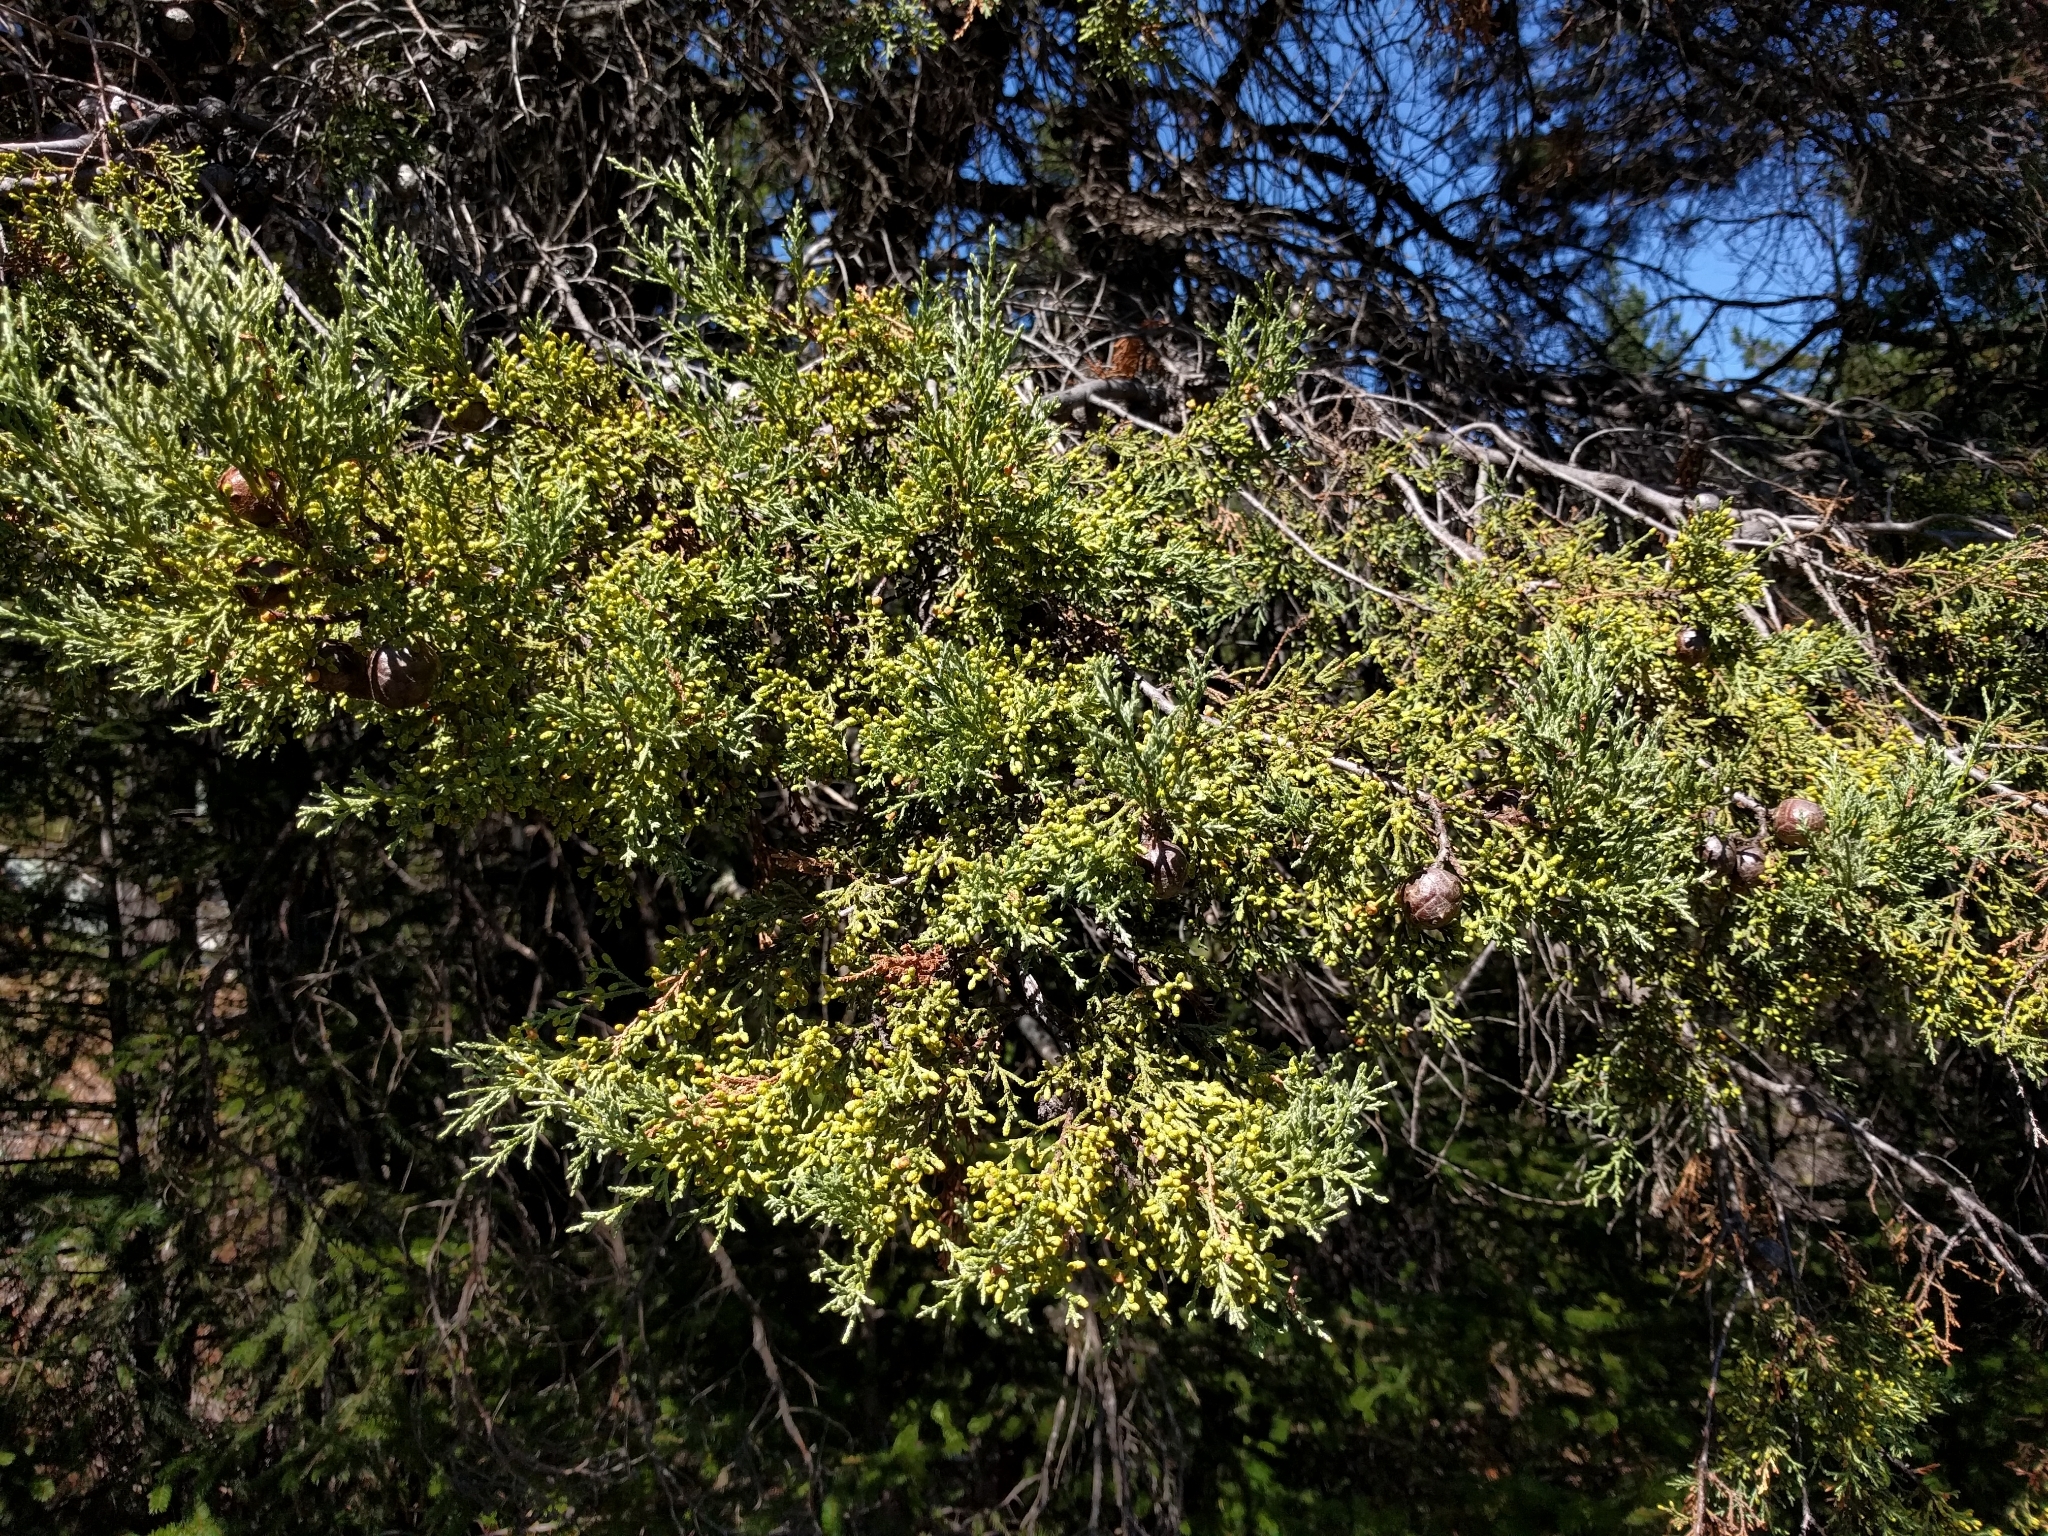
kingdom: Plantae
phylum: Tracheophyta
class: Pinopsida
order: Pinales
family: Cupressaceae
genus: Cupressus
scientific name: Cupressus sargentii
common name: Sargent cypress
